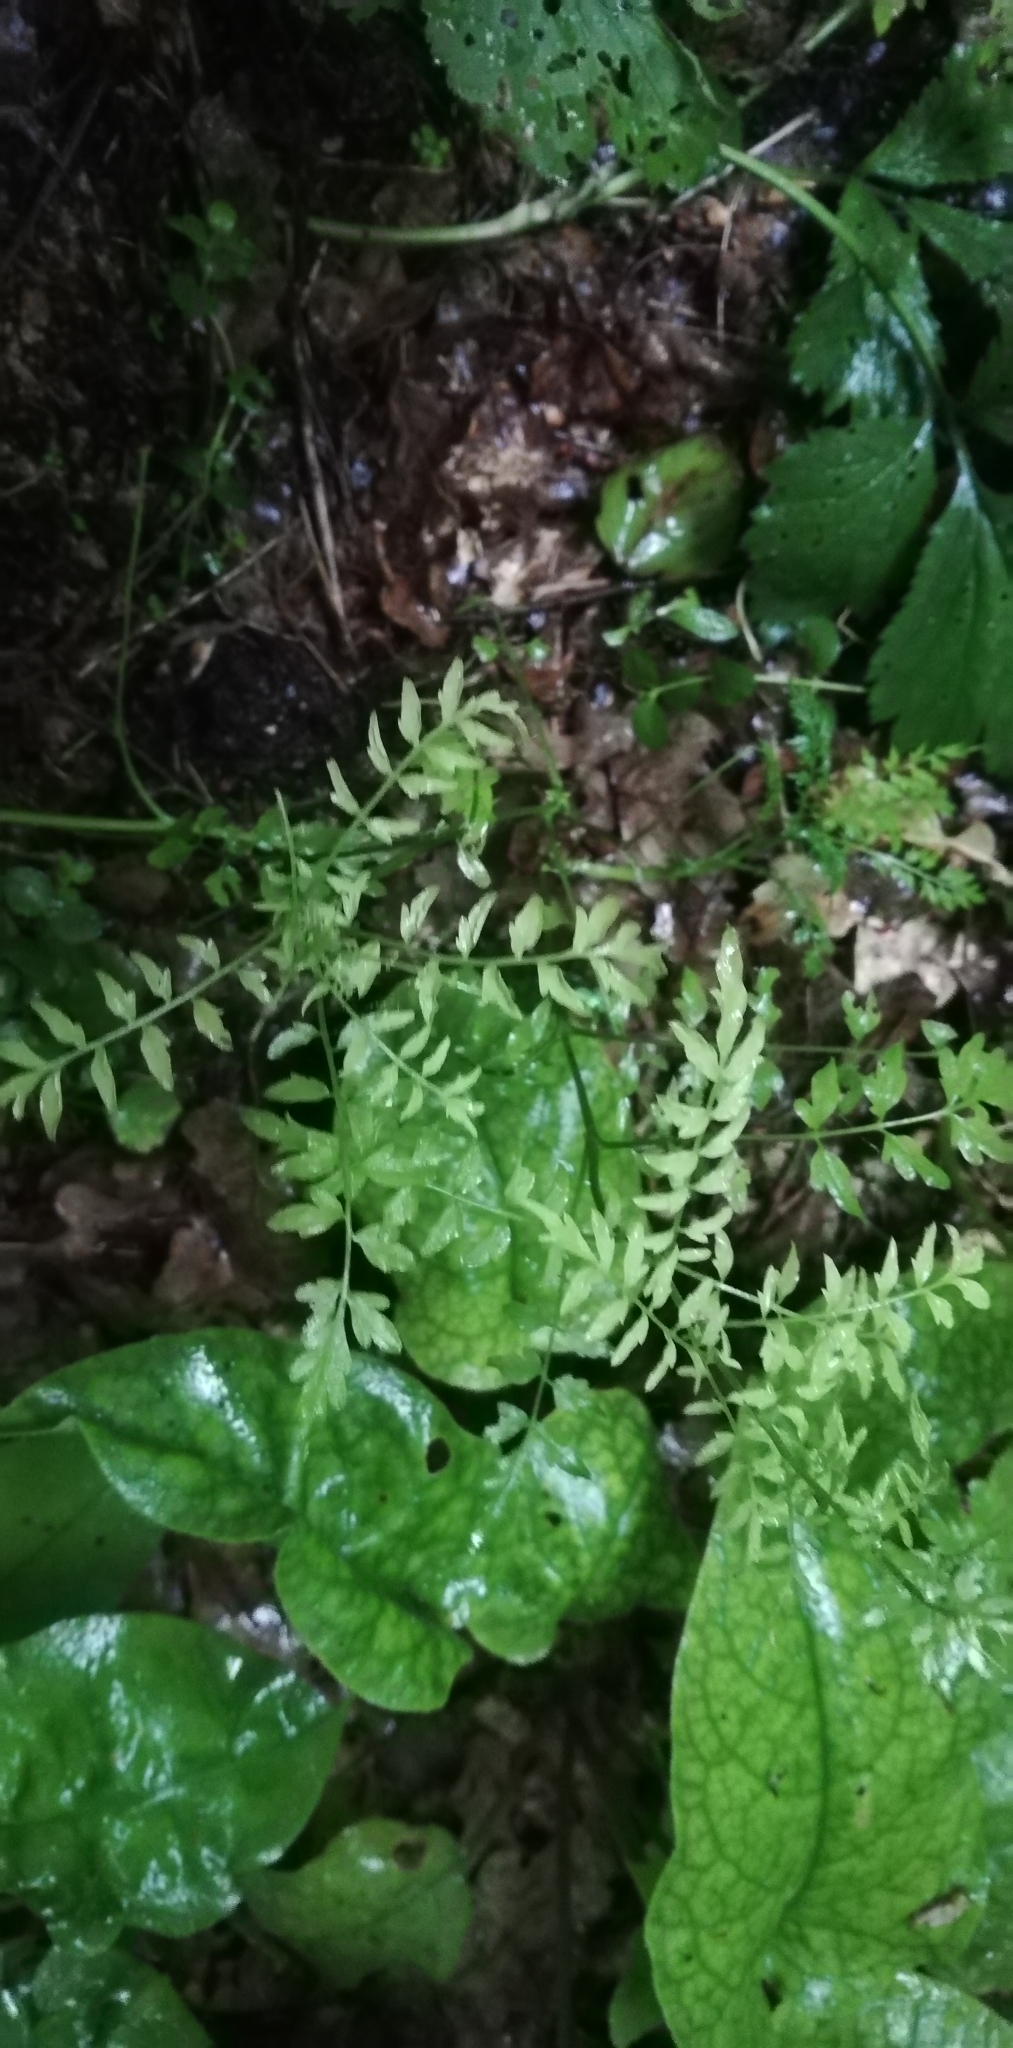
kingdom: Plantae
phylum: Tracheophyta
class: Magnoliopsida
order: Brassicales
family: Brassicaceae
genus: Cardamine
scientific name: Cardamine impatiens
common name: Narrow-leaved bitter-cress
